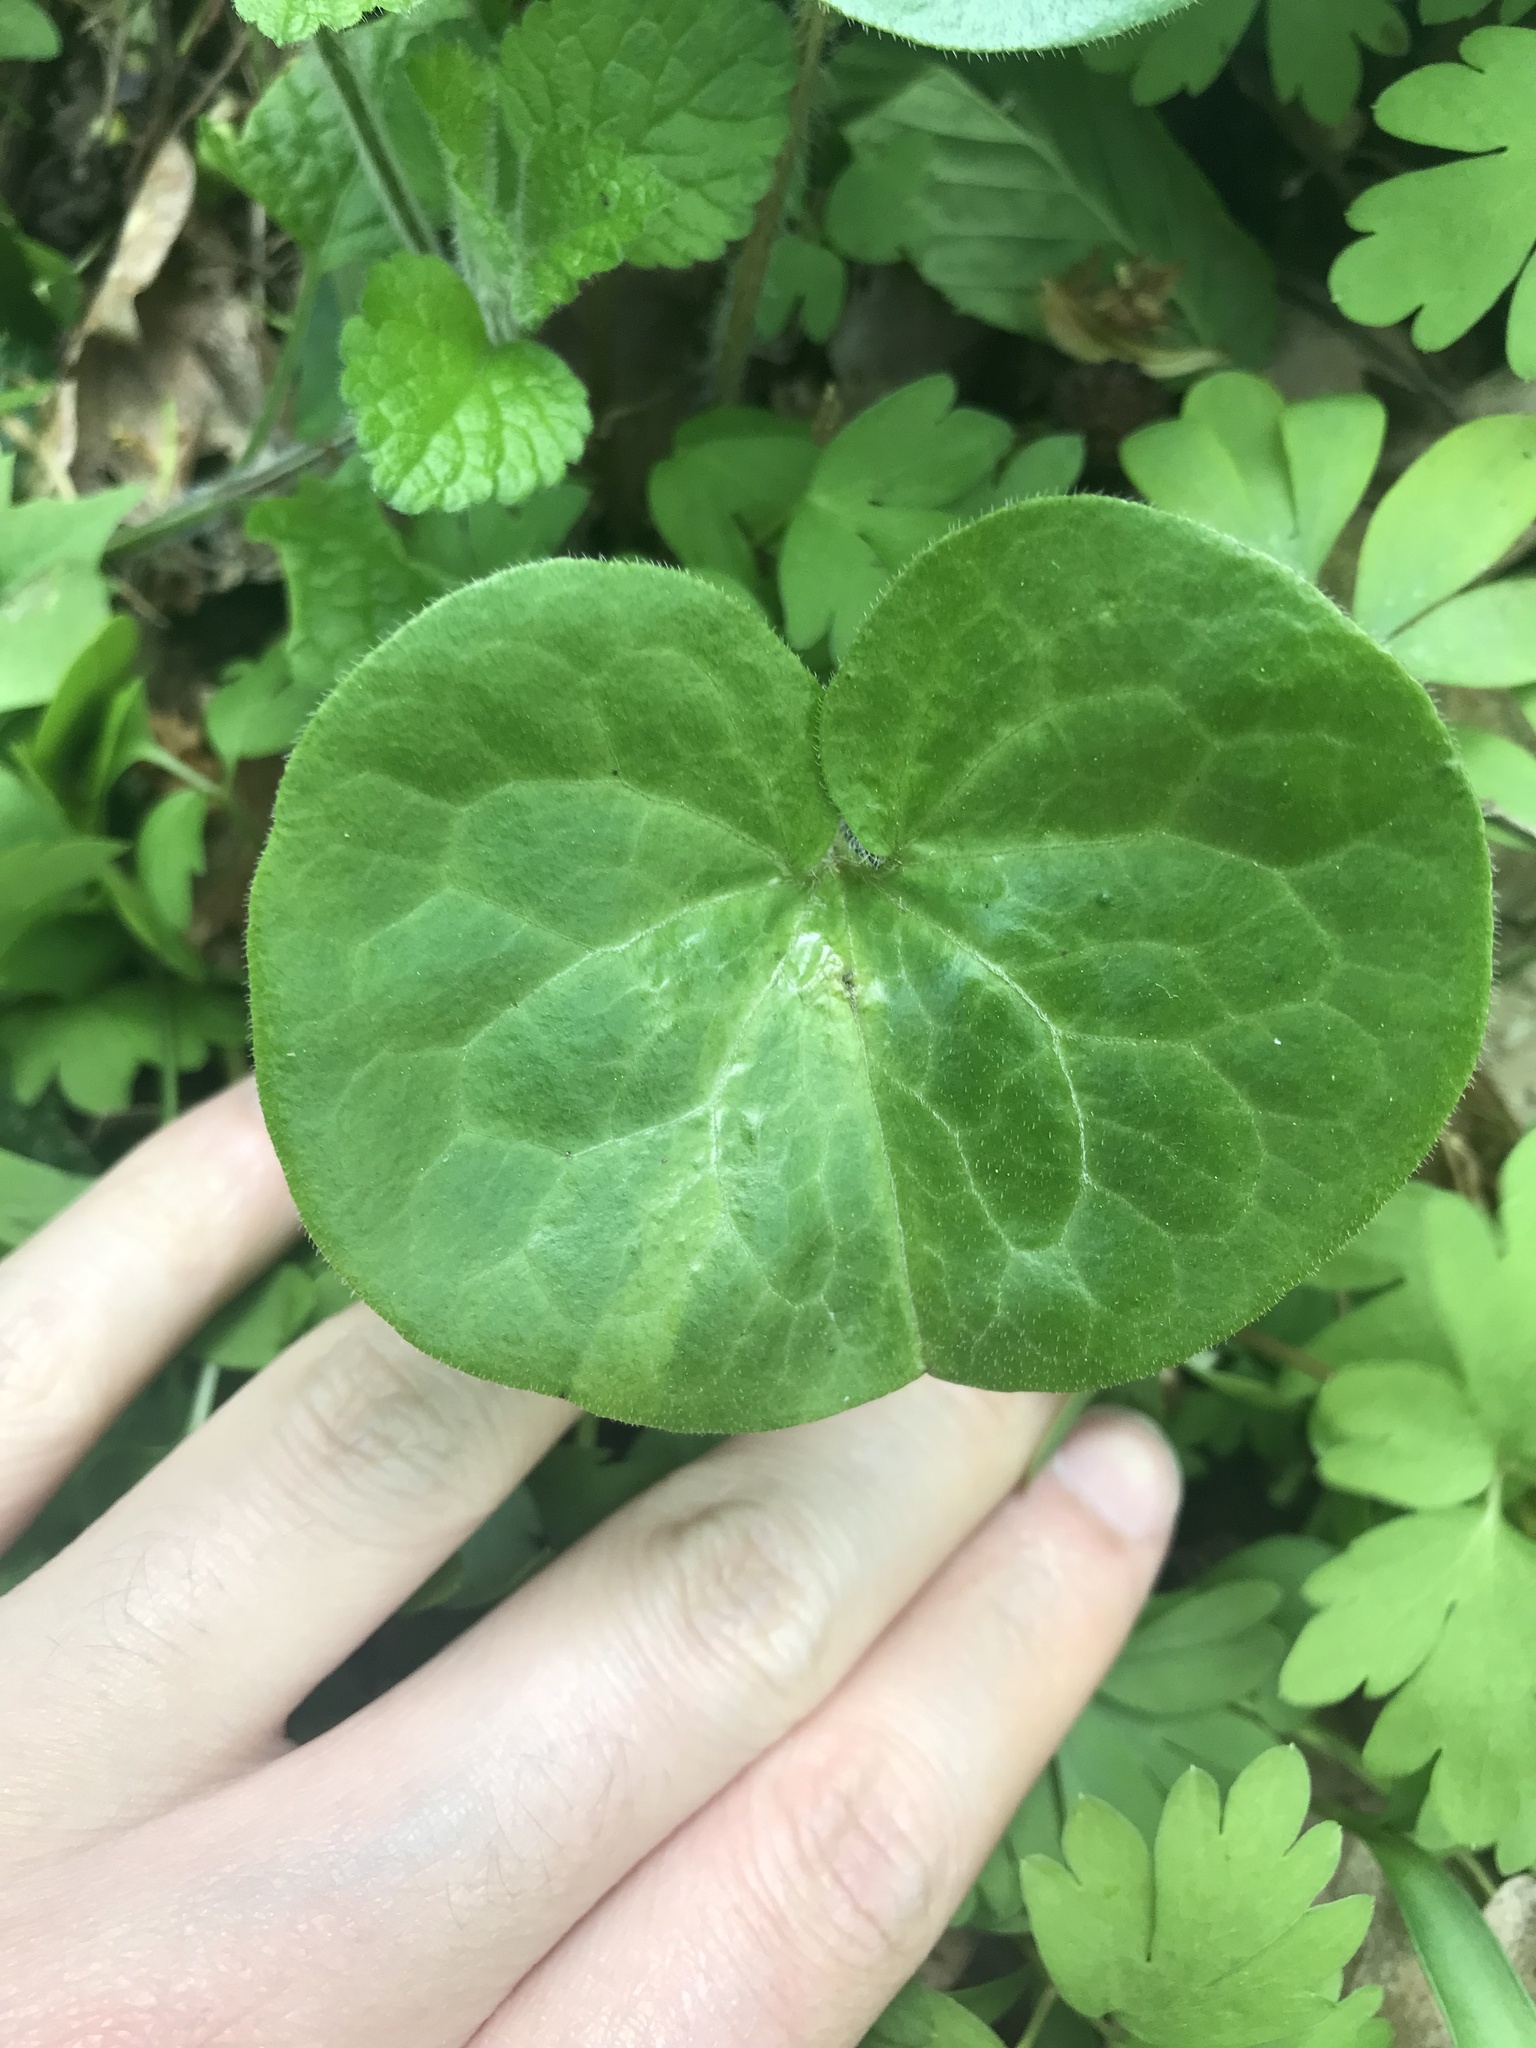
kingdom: Plantae
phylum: Tracheophyta
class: Magnoliopsida
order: Piperales
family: Aristolochiaceae
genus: Asarum
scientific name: Asarum europaeum
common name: Asarabacca
